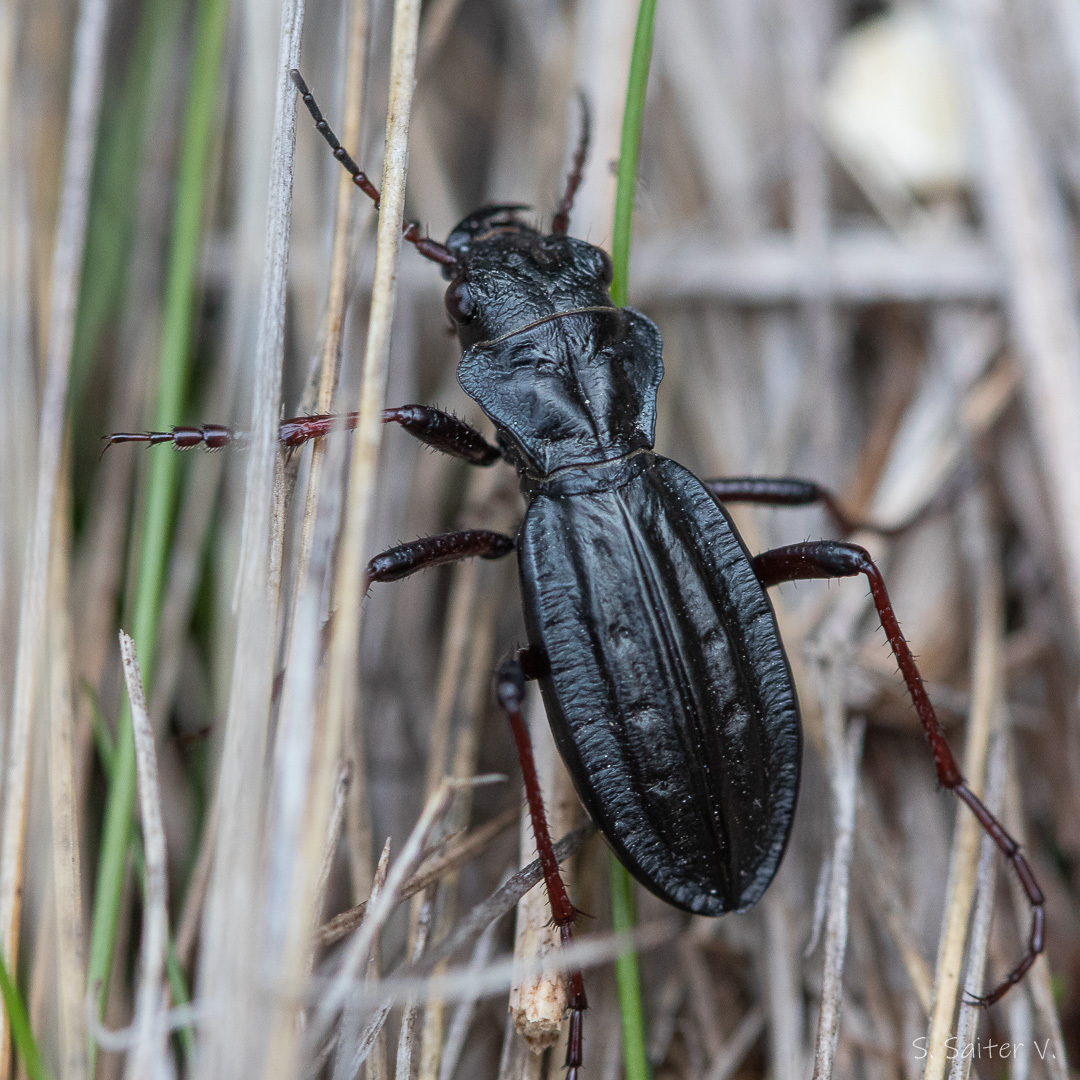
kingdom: Animalia
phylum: Arthropoda
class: Insecta
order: Coleoptera
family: Carabidae
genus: Picnochile
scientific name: Picnochile fallaciosa
